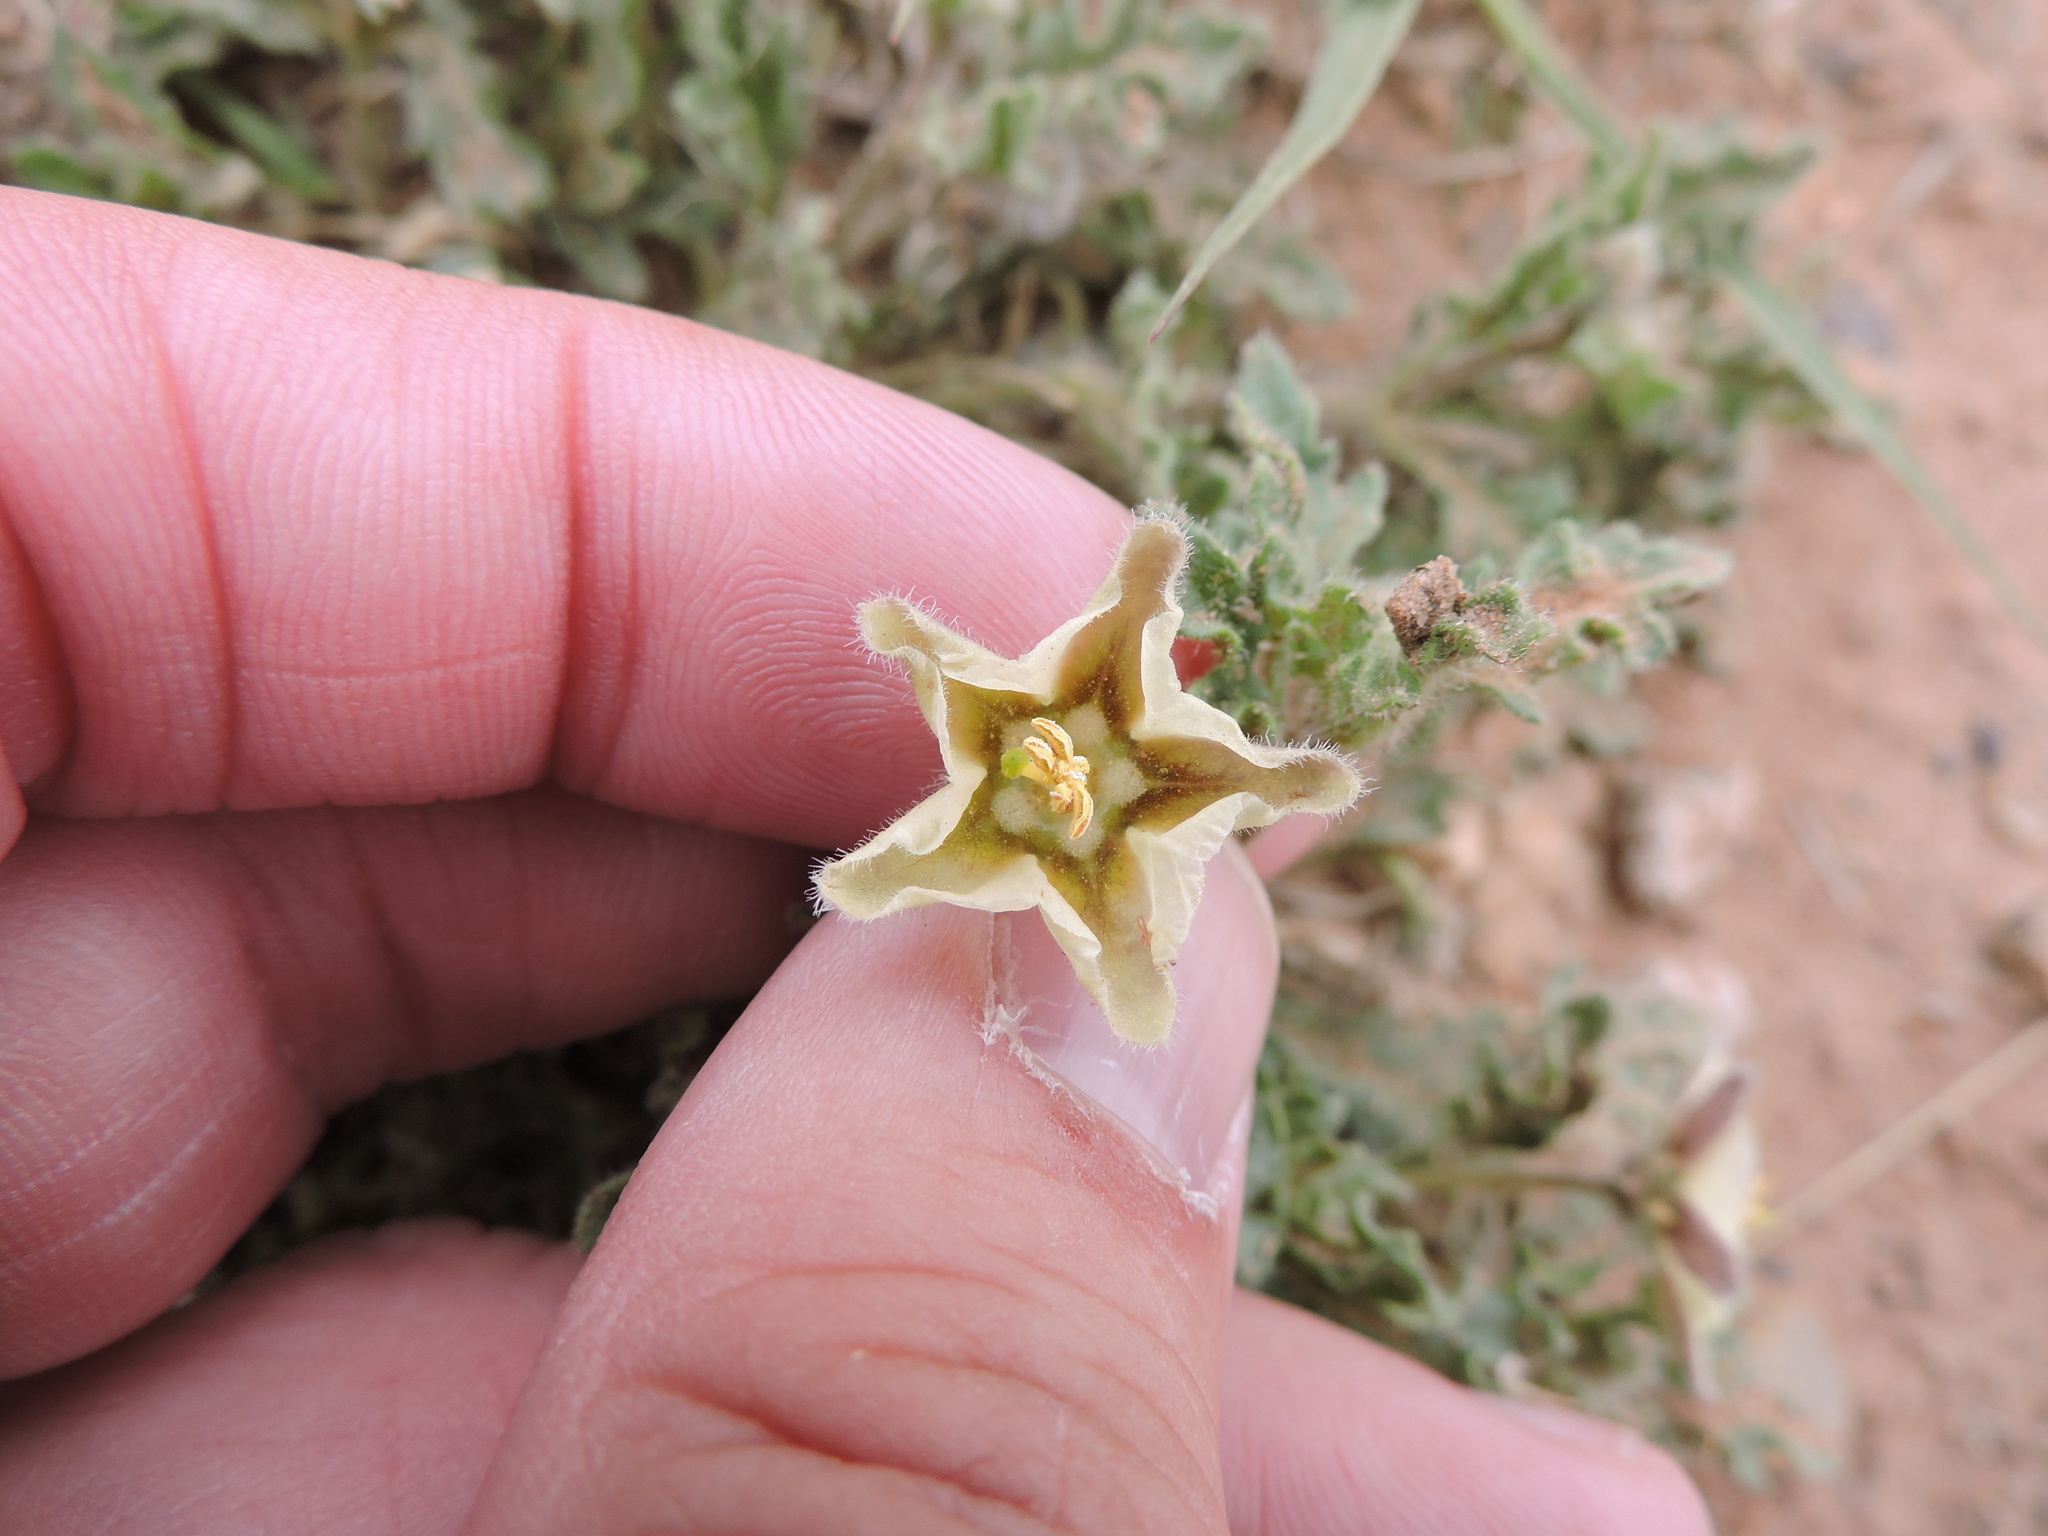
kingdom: Plantae
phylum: Tracheophyta
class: Magnoliopsida
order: Solanales
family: Solanaceae
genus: Chamaesaracha
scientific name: Chamaesaracha coniodes
